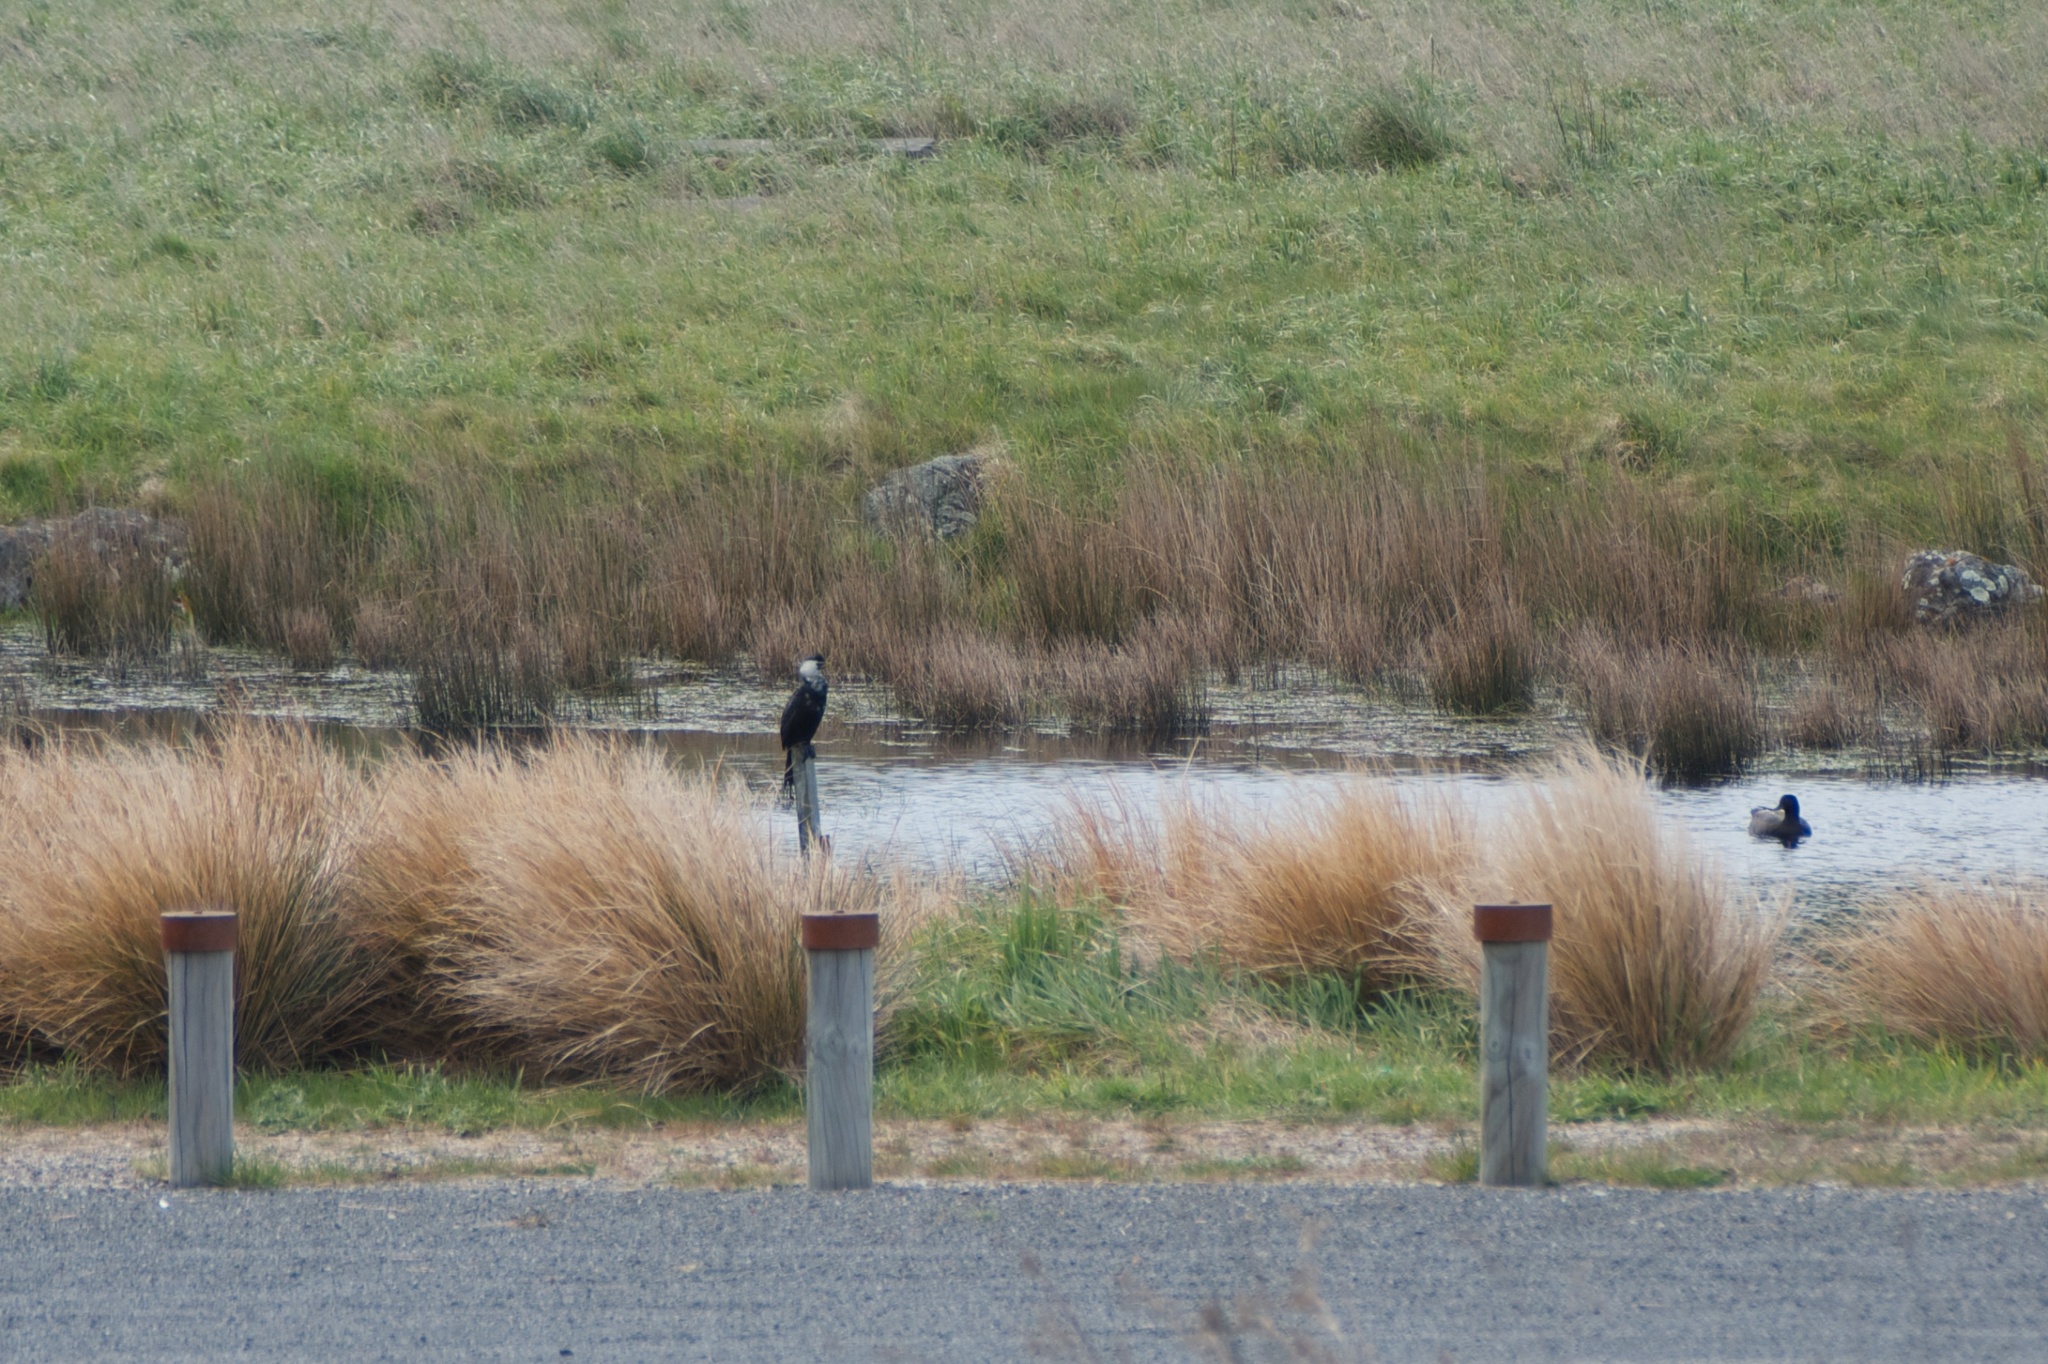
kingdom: Animalia
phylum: Chordata
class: Aves
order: Suliformes
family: Phalacrocoracidae
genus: Microcarbo
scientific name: Microcarbo melanoleucos
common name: Little pied cormorant
